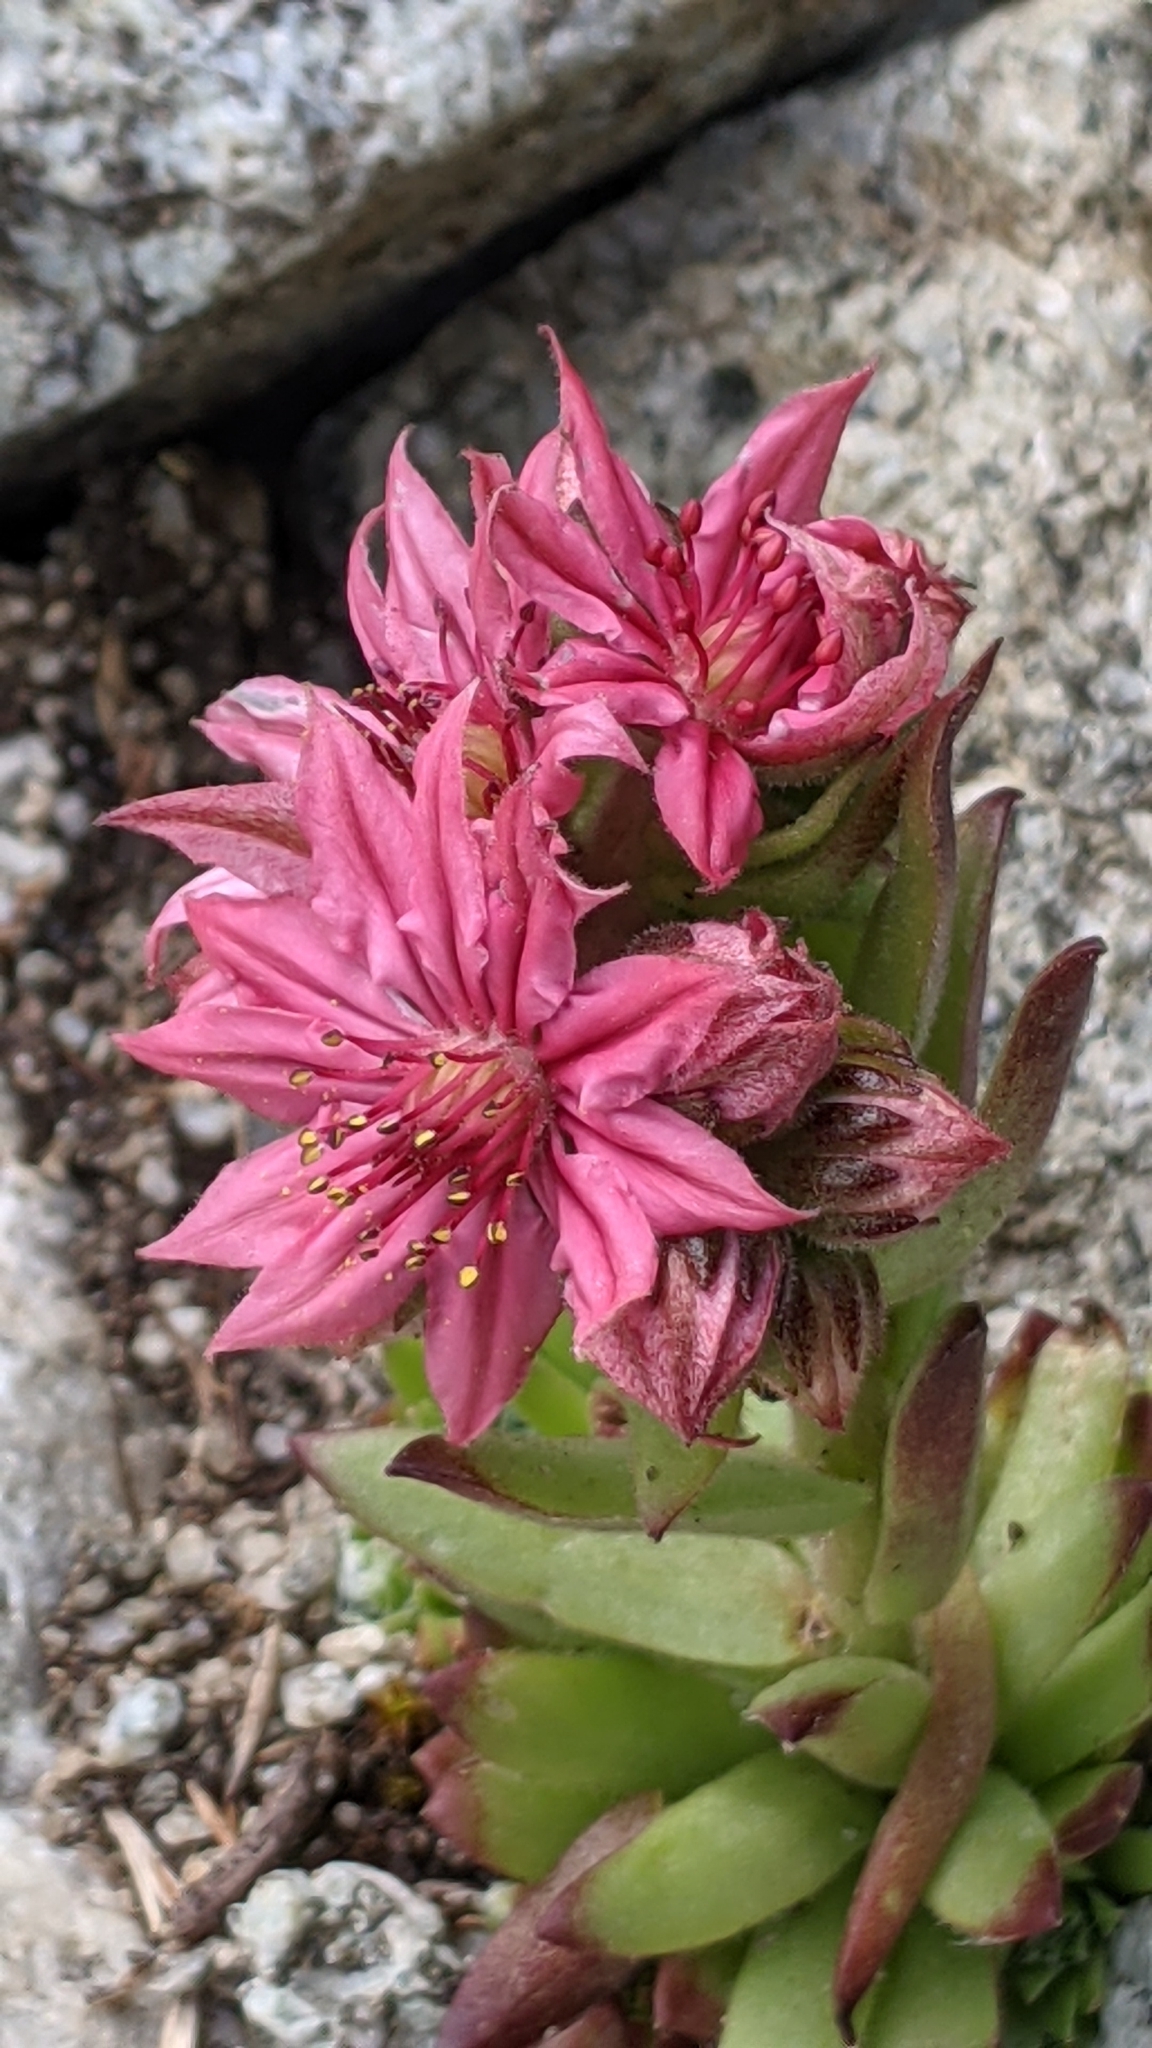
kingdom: Plantae
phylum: Tracheophyta
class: Magnoliopsida
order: Saxifragales
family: Crassulaceae
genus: Sempervivum
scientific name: Sempervivum arachnoideum
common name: Cobweb house-leek
